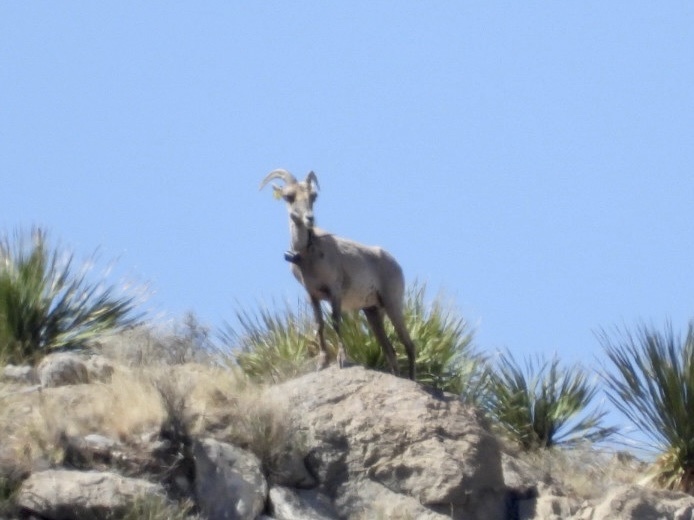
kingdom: Animalia
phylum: Chordata
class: Mammalia
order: Artiodactyla
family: Bovidae
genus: Ovis
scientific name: Ovis canadensis
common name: Bighorn sheep
